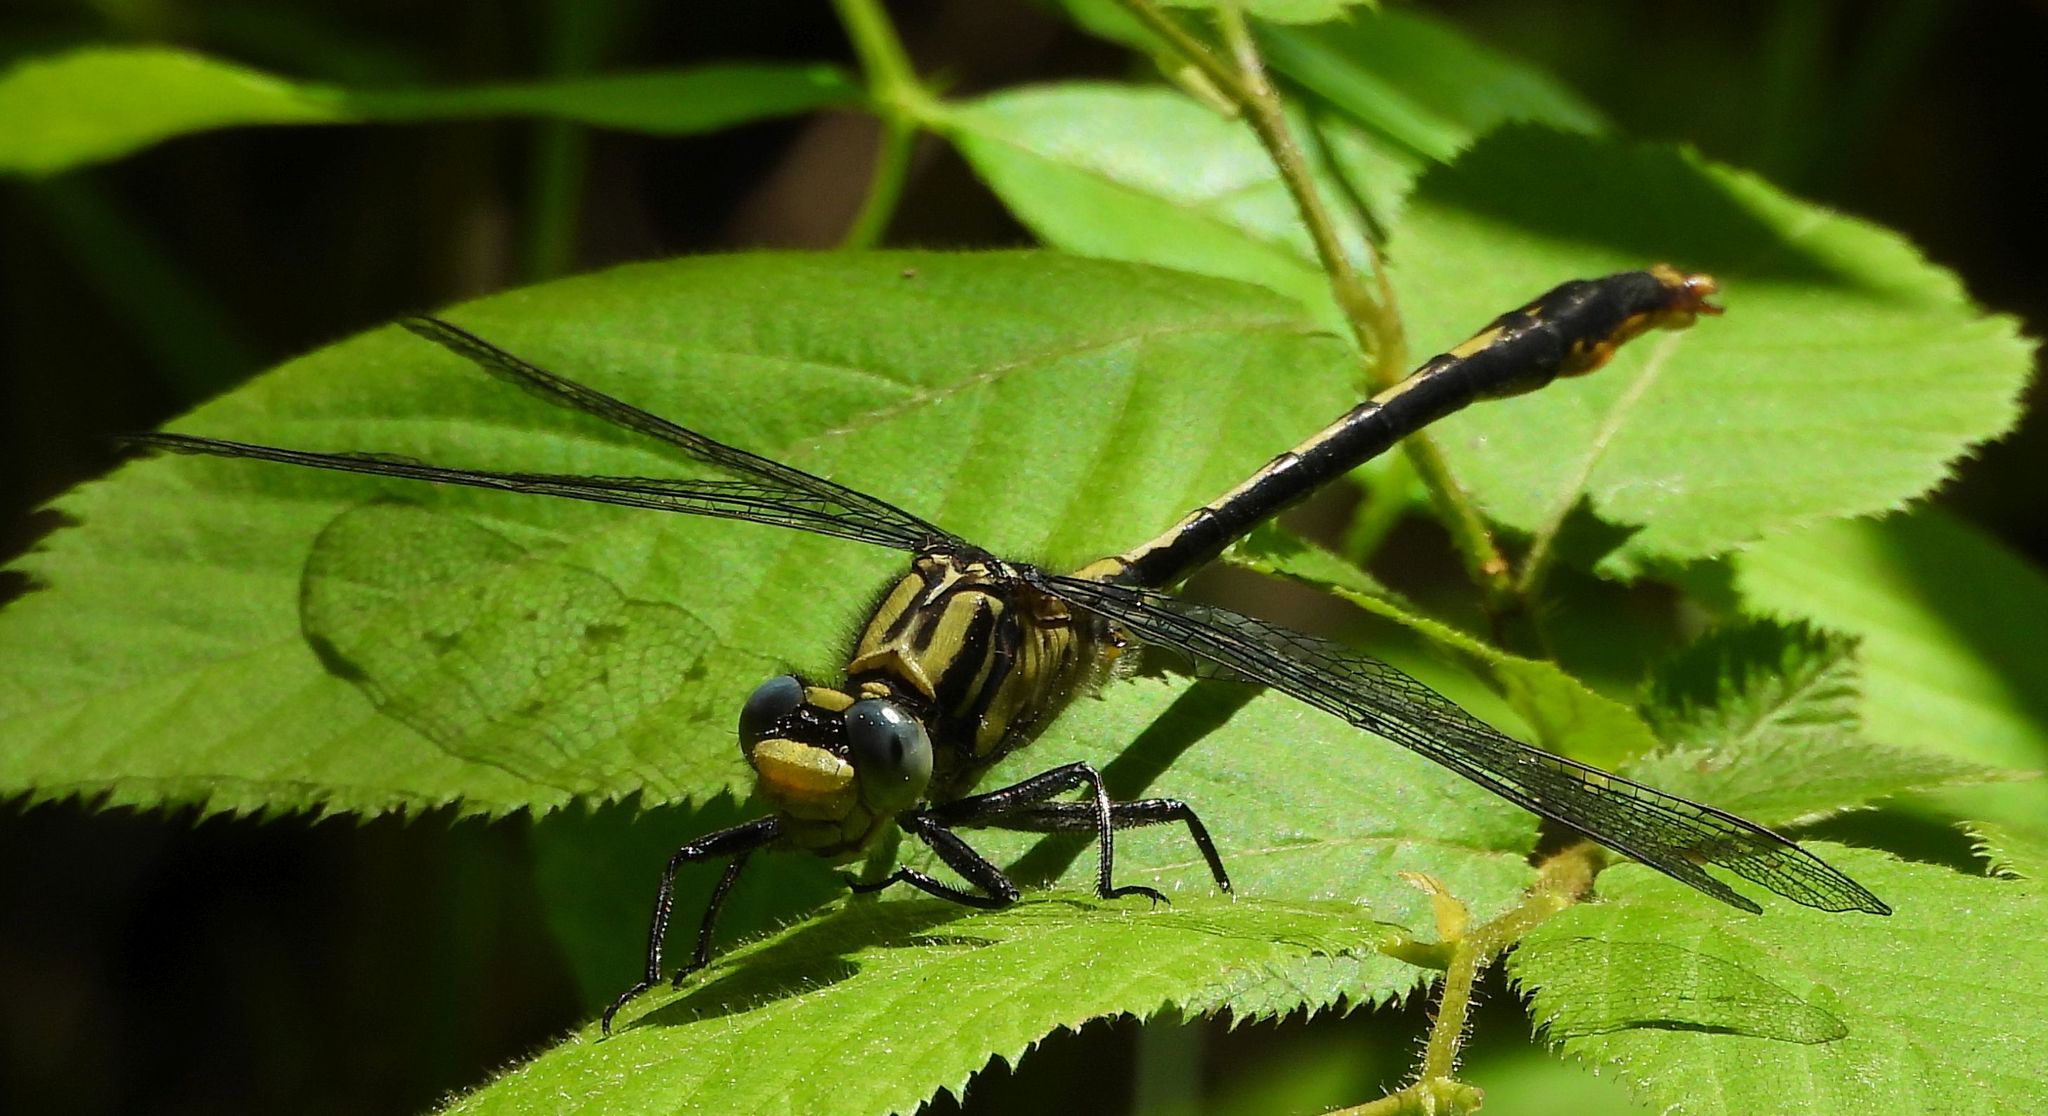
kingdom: Animalia
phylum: Arthropoda
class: Insecta
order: Odonata
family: Gomphidae
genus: Arigomphus
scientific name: Arigomphus furcifer
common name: Lilypad clubtail
